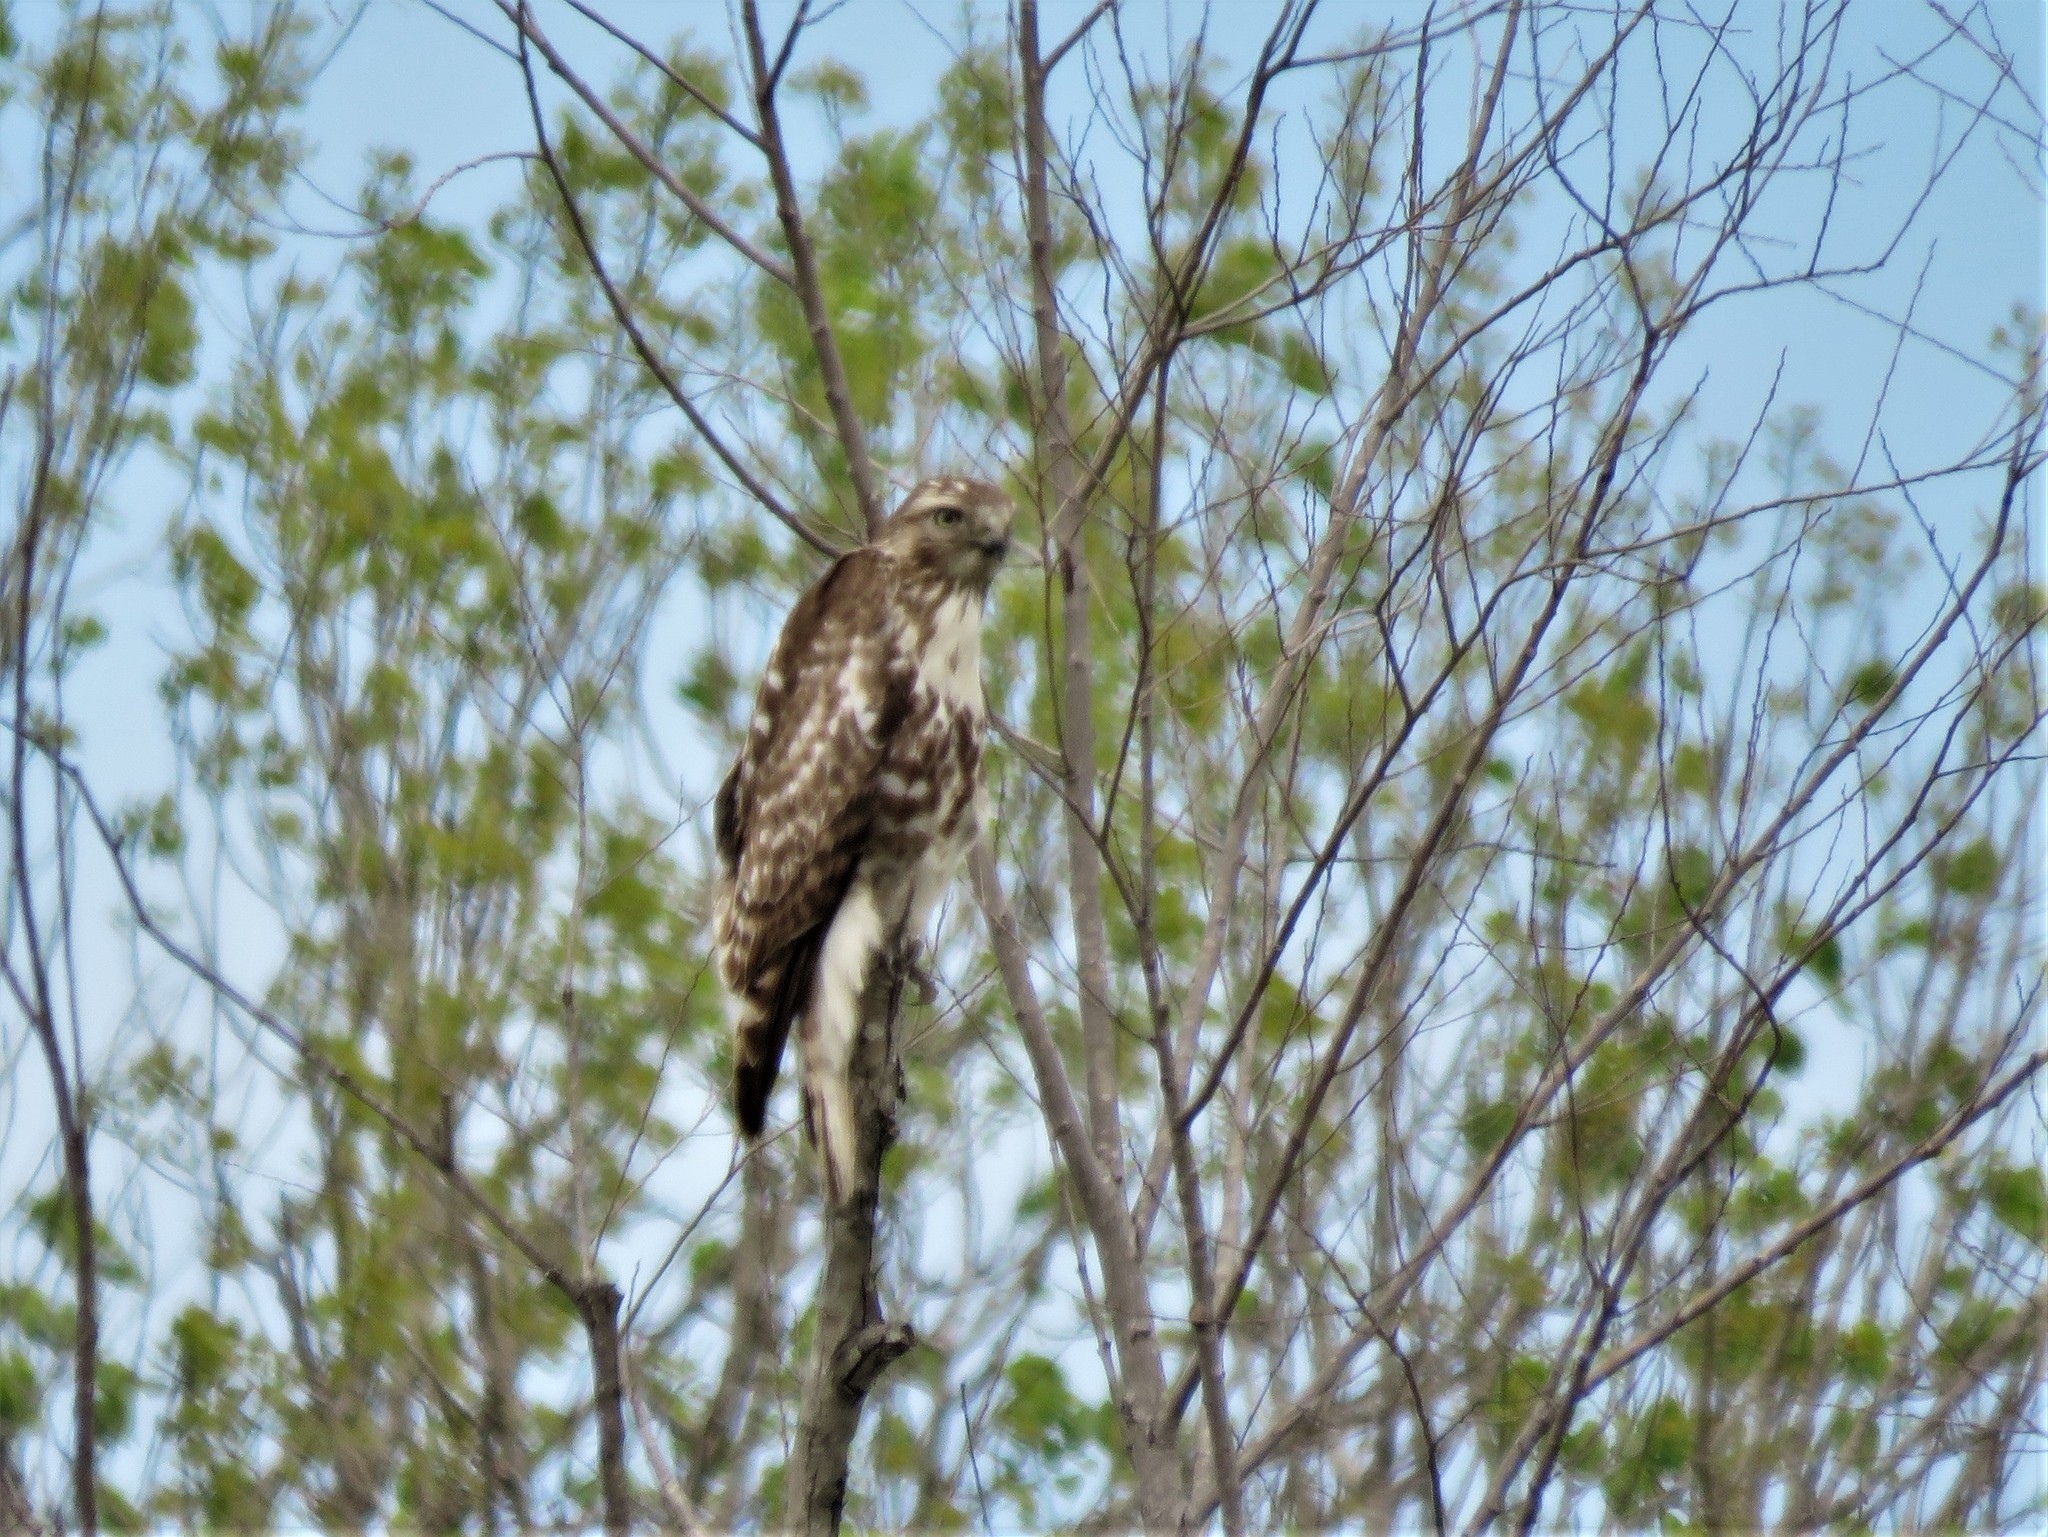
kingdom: Animalia
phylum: Chordata
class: Aves
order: Accipitriformes
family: Accipitridae
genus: Buteo
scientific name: Buteo jamaicensis
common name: Red-tailed hawk
